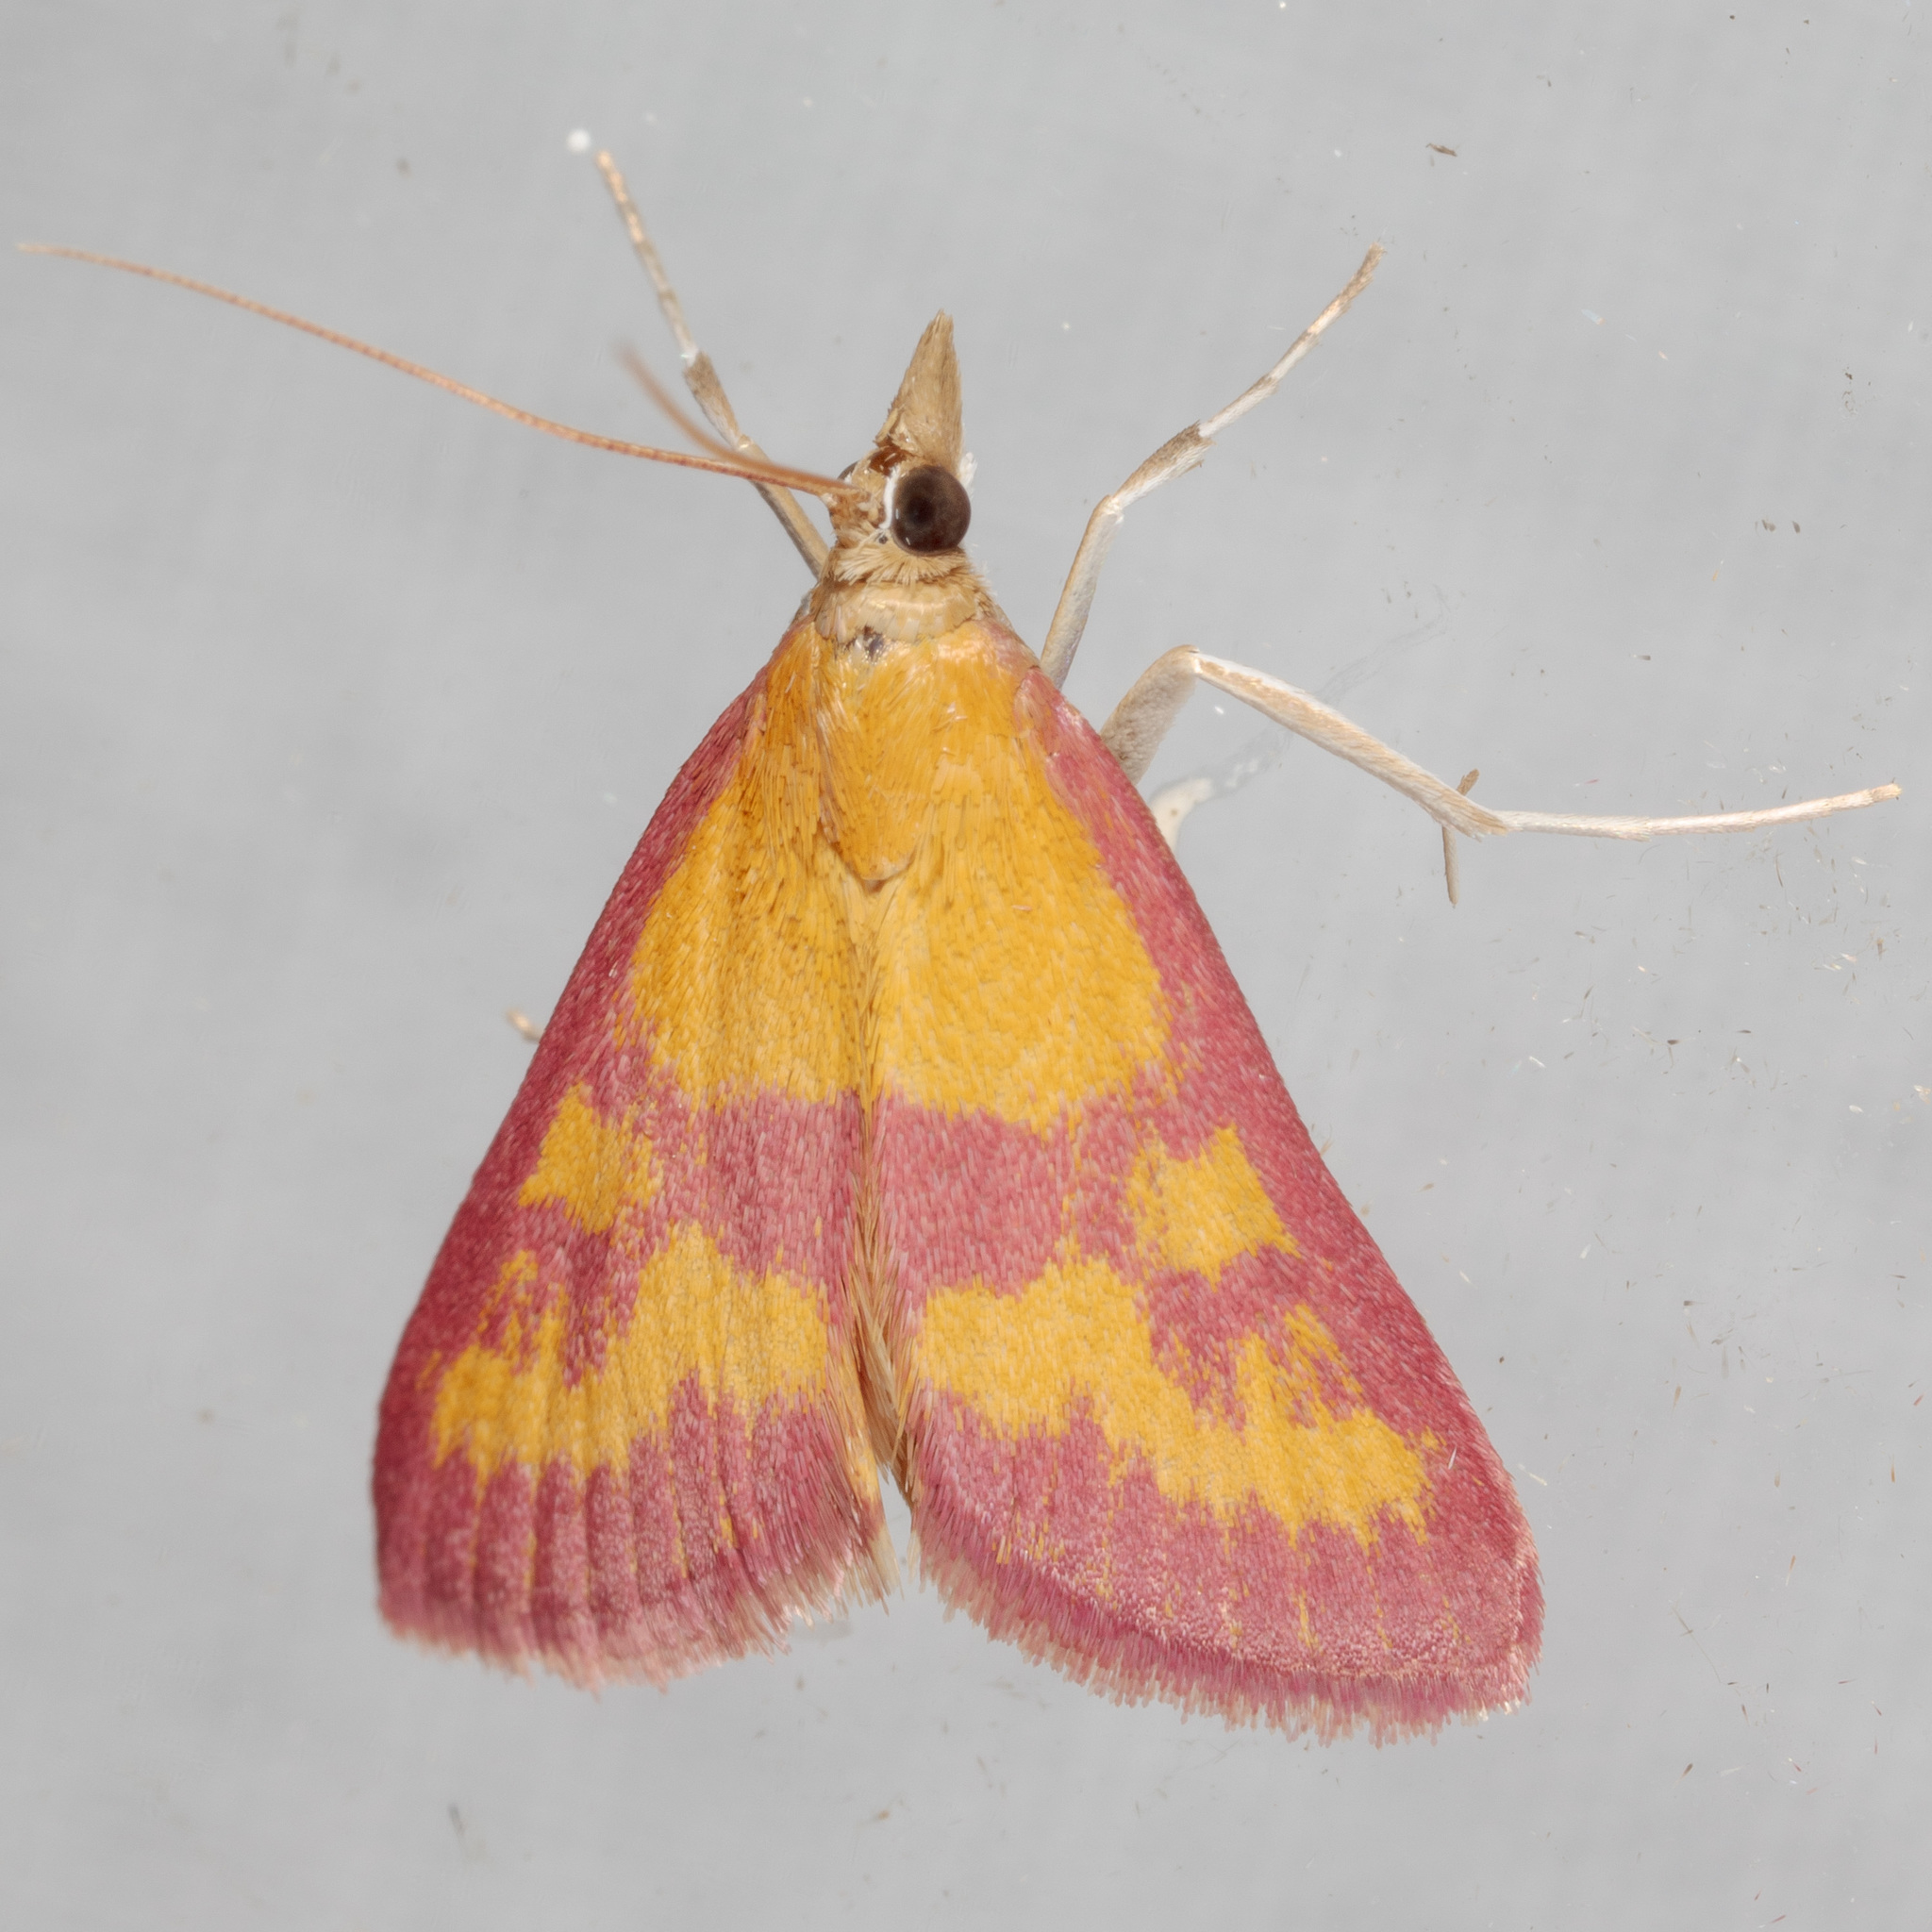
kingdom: Animalia
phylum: Arthropoda
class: Insecta
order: Lepidoptera
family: Crambidae
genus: Pyrausta
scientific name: Pyrausta laticlavia
